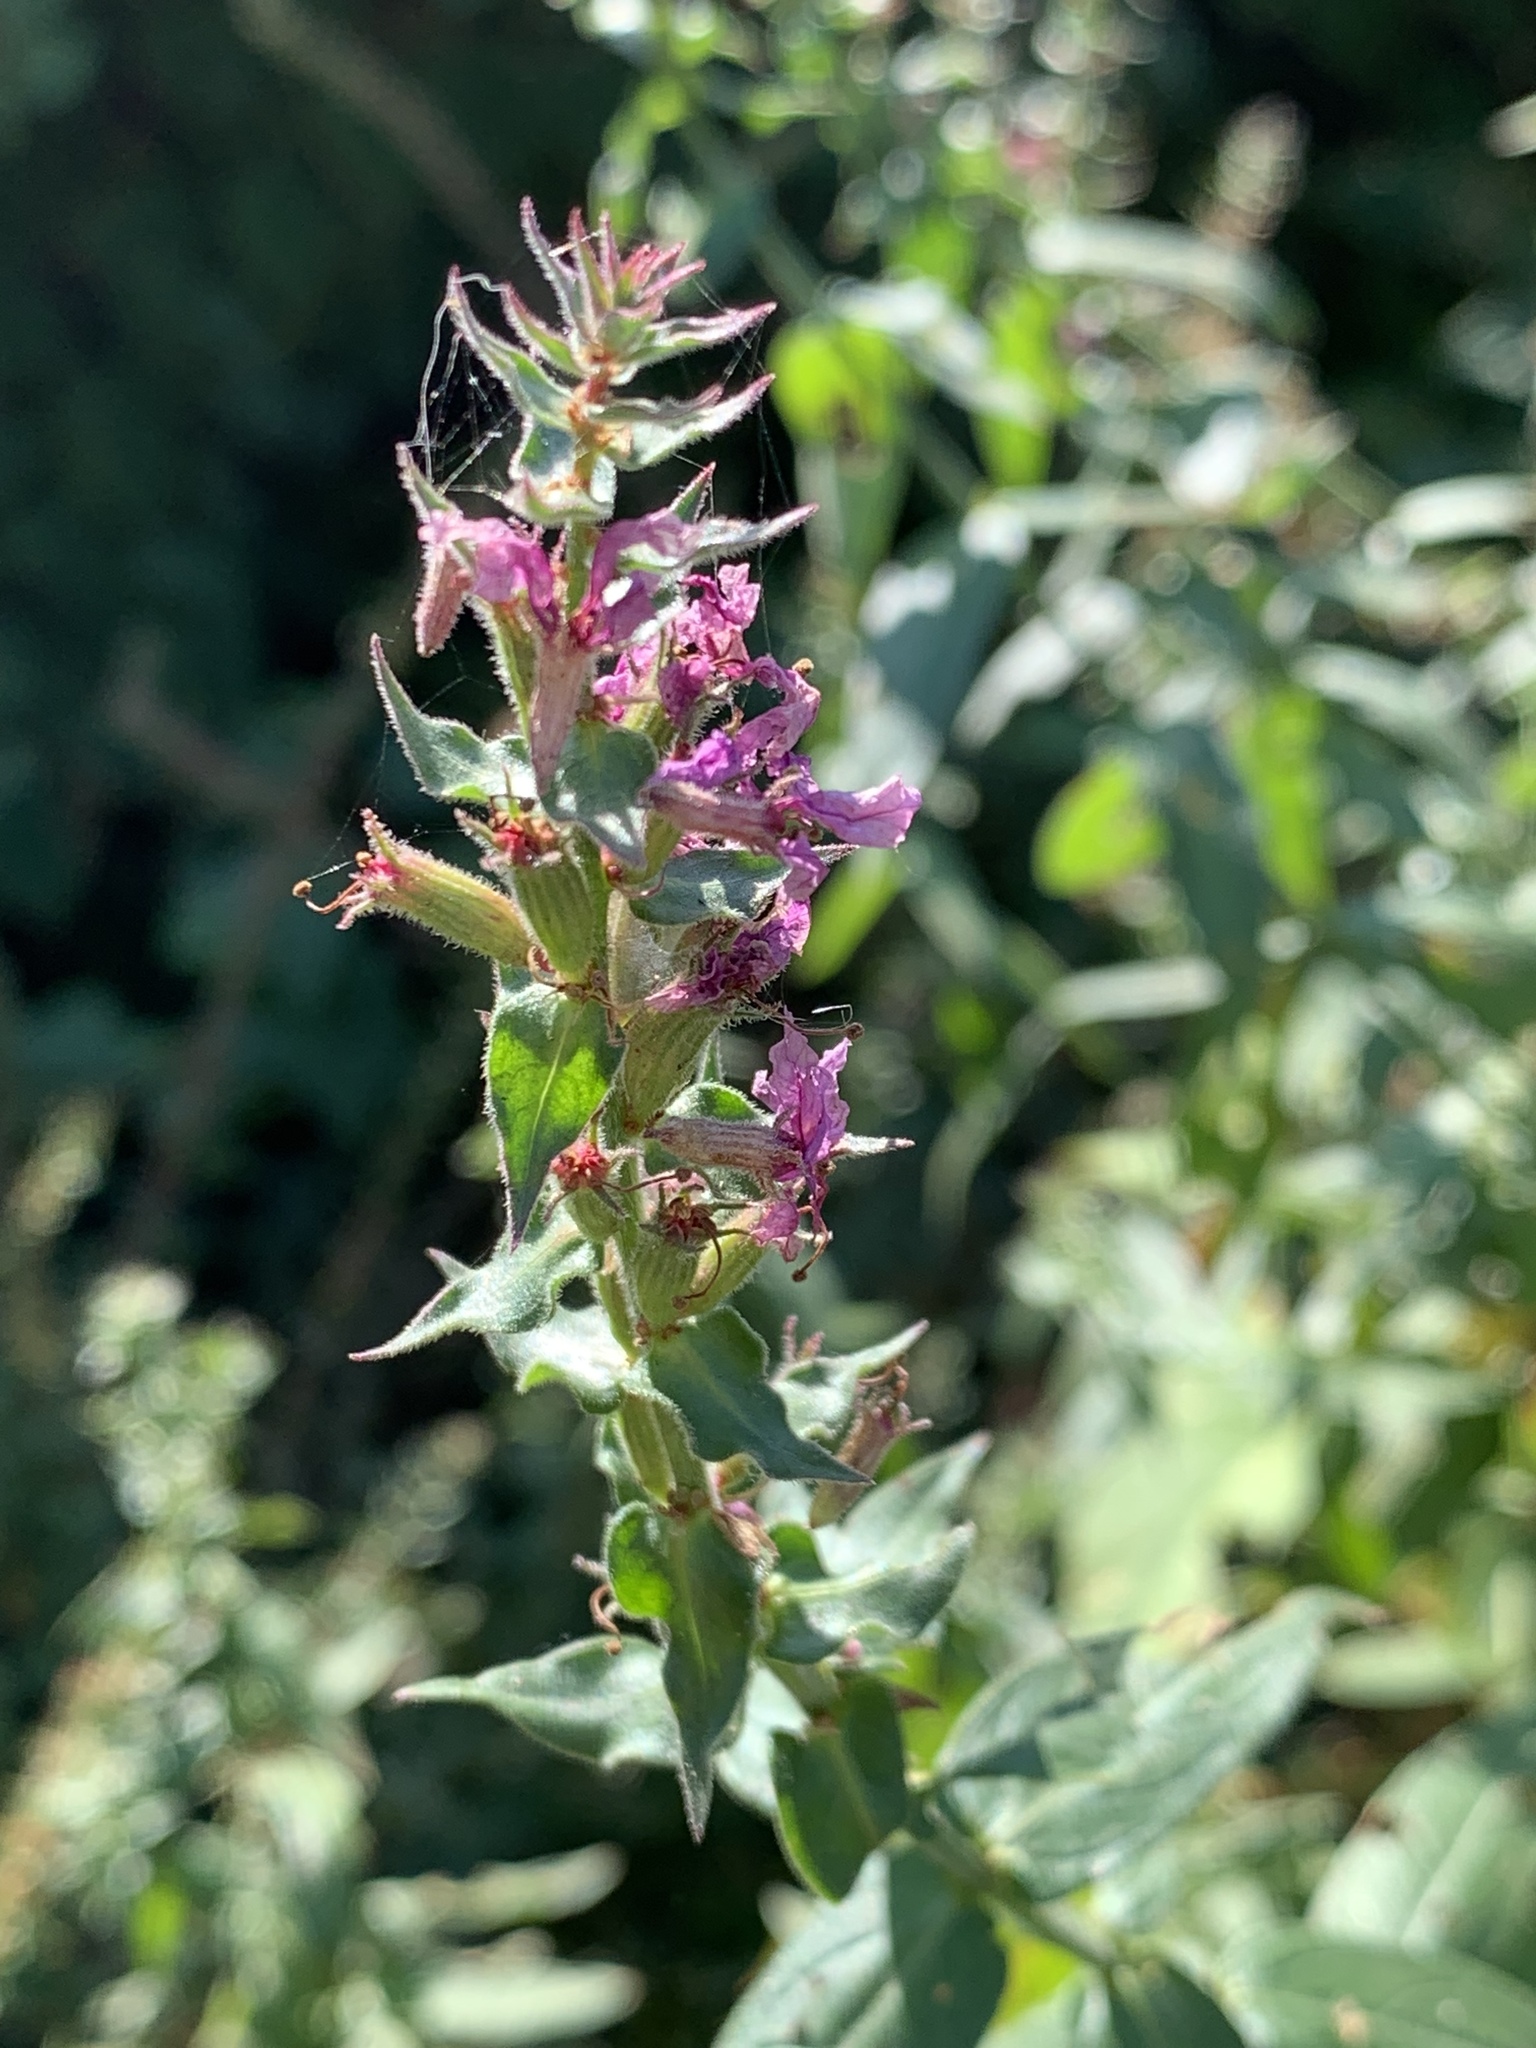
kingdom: Plantae
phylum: Tracheophyta
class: Magnoliopsida
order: Myrtales
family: Lythraceae
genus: Lythrum
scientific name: Lythrum salicaria
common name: Purple loosestrife
